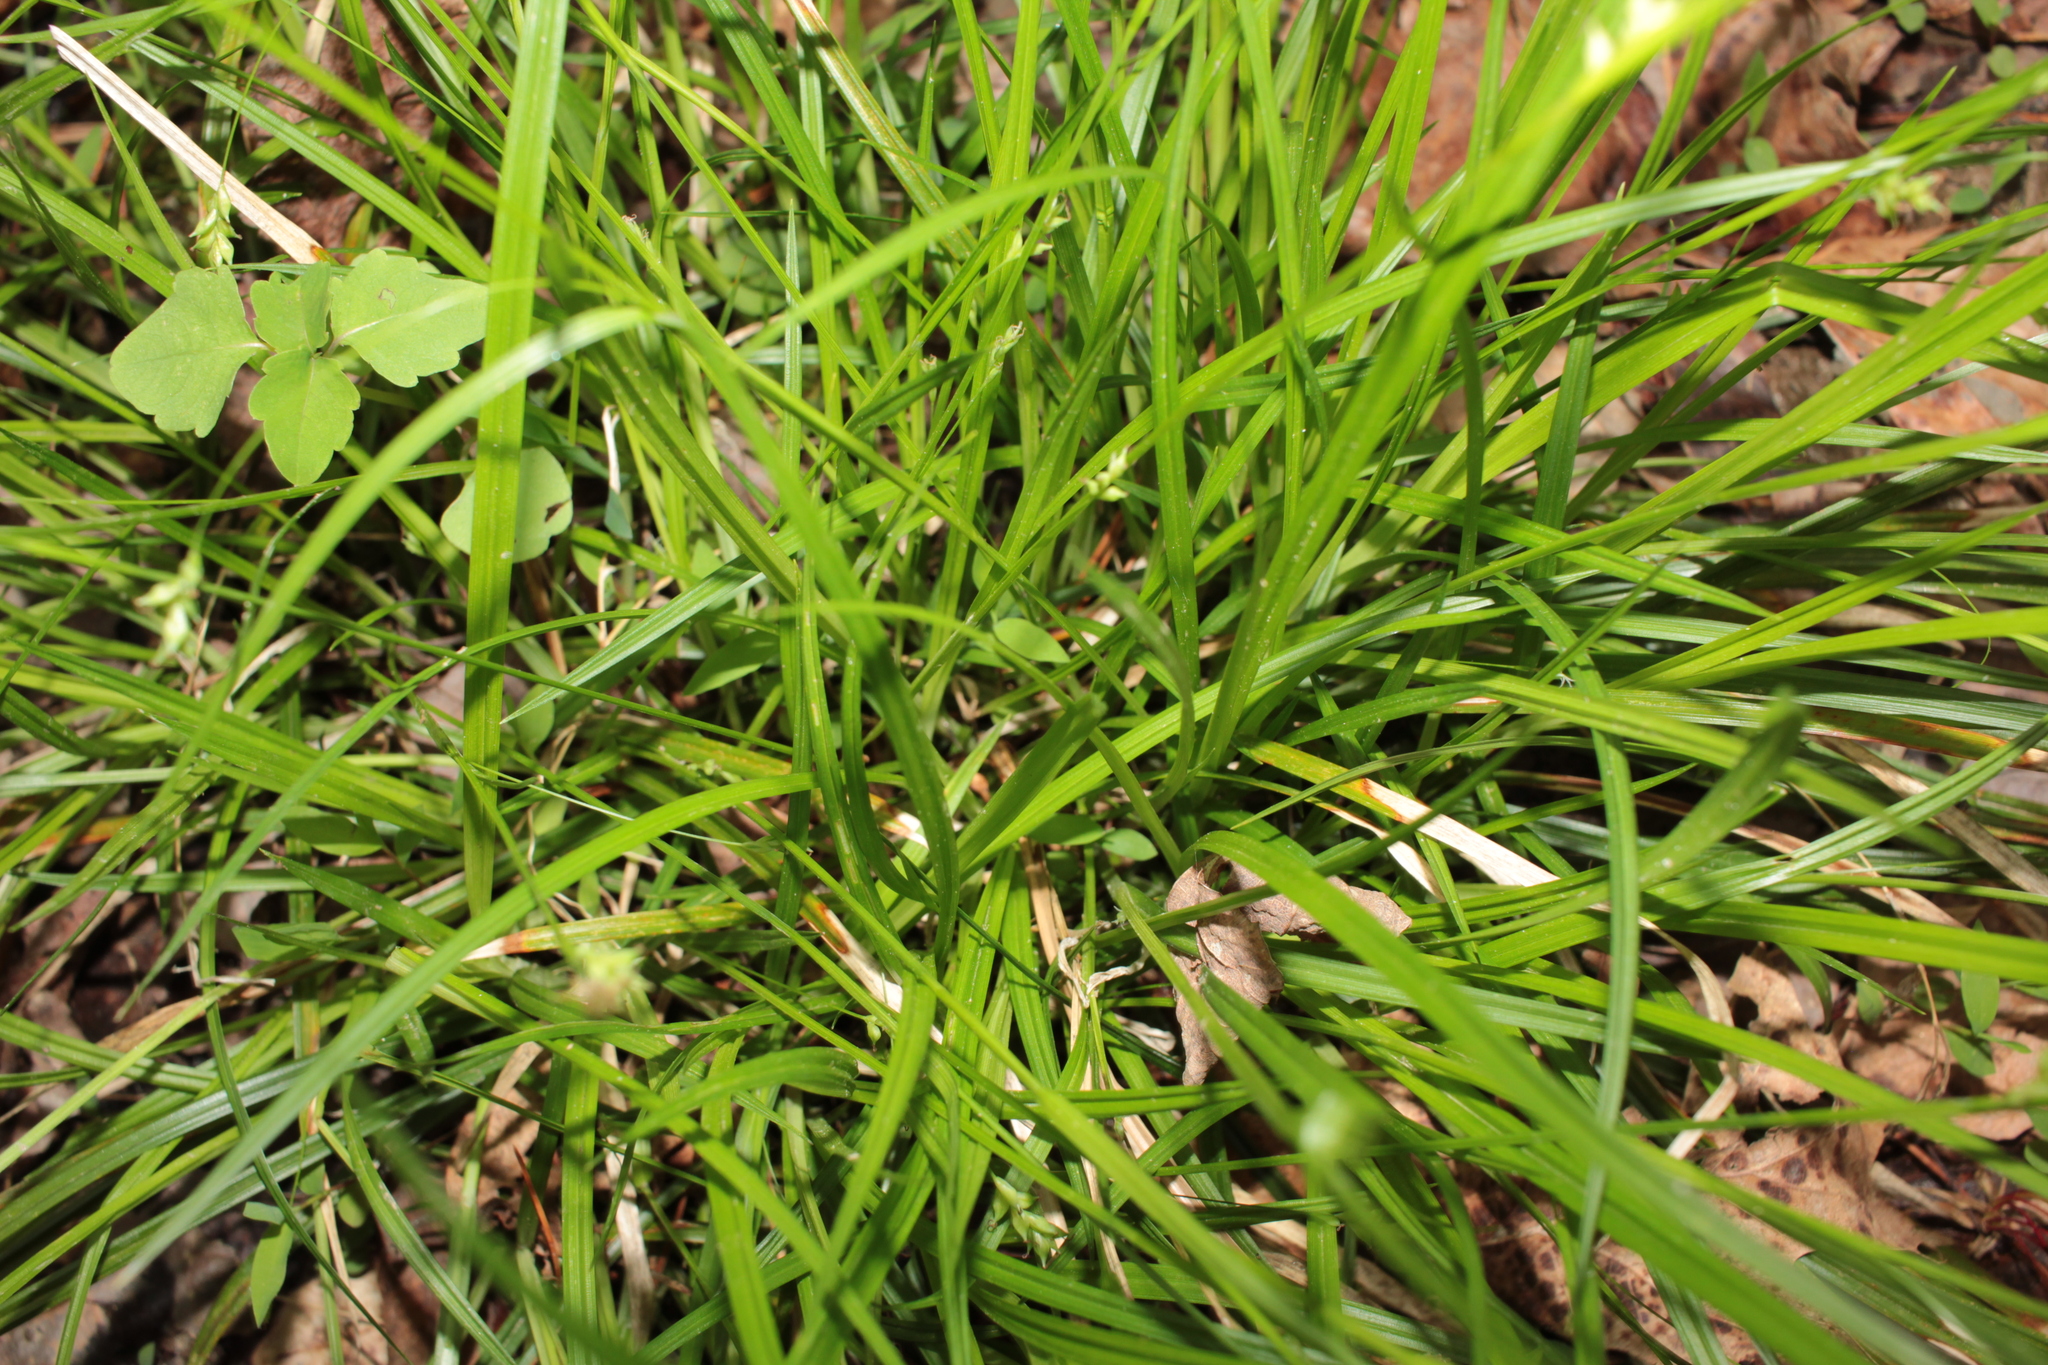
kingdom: Plantae
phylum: Tracheophyta
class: Liliopsida
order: Poales
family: Cyperaceae
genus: Carex
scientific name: Carex styloflexa
